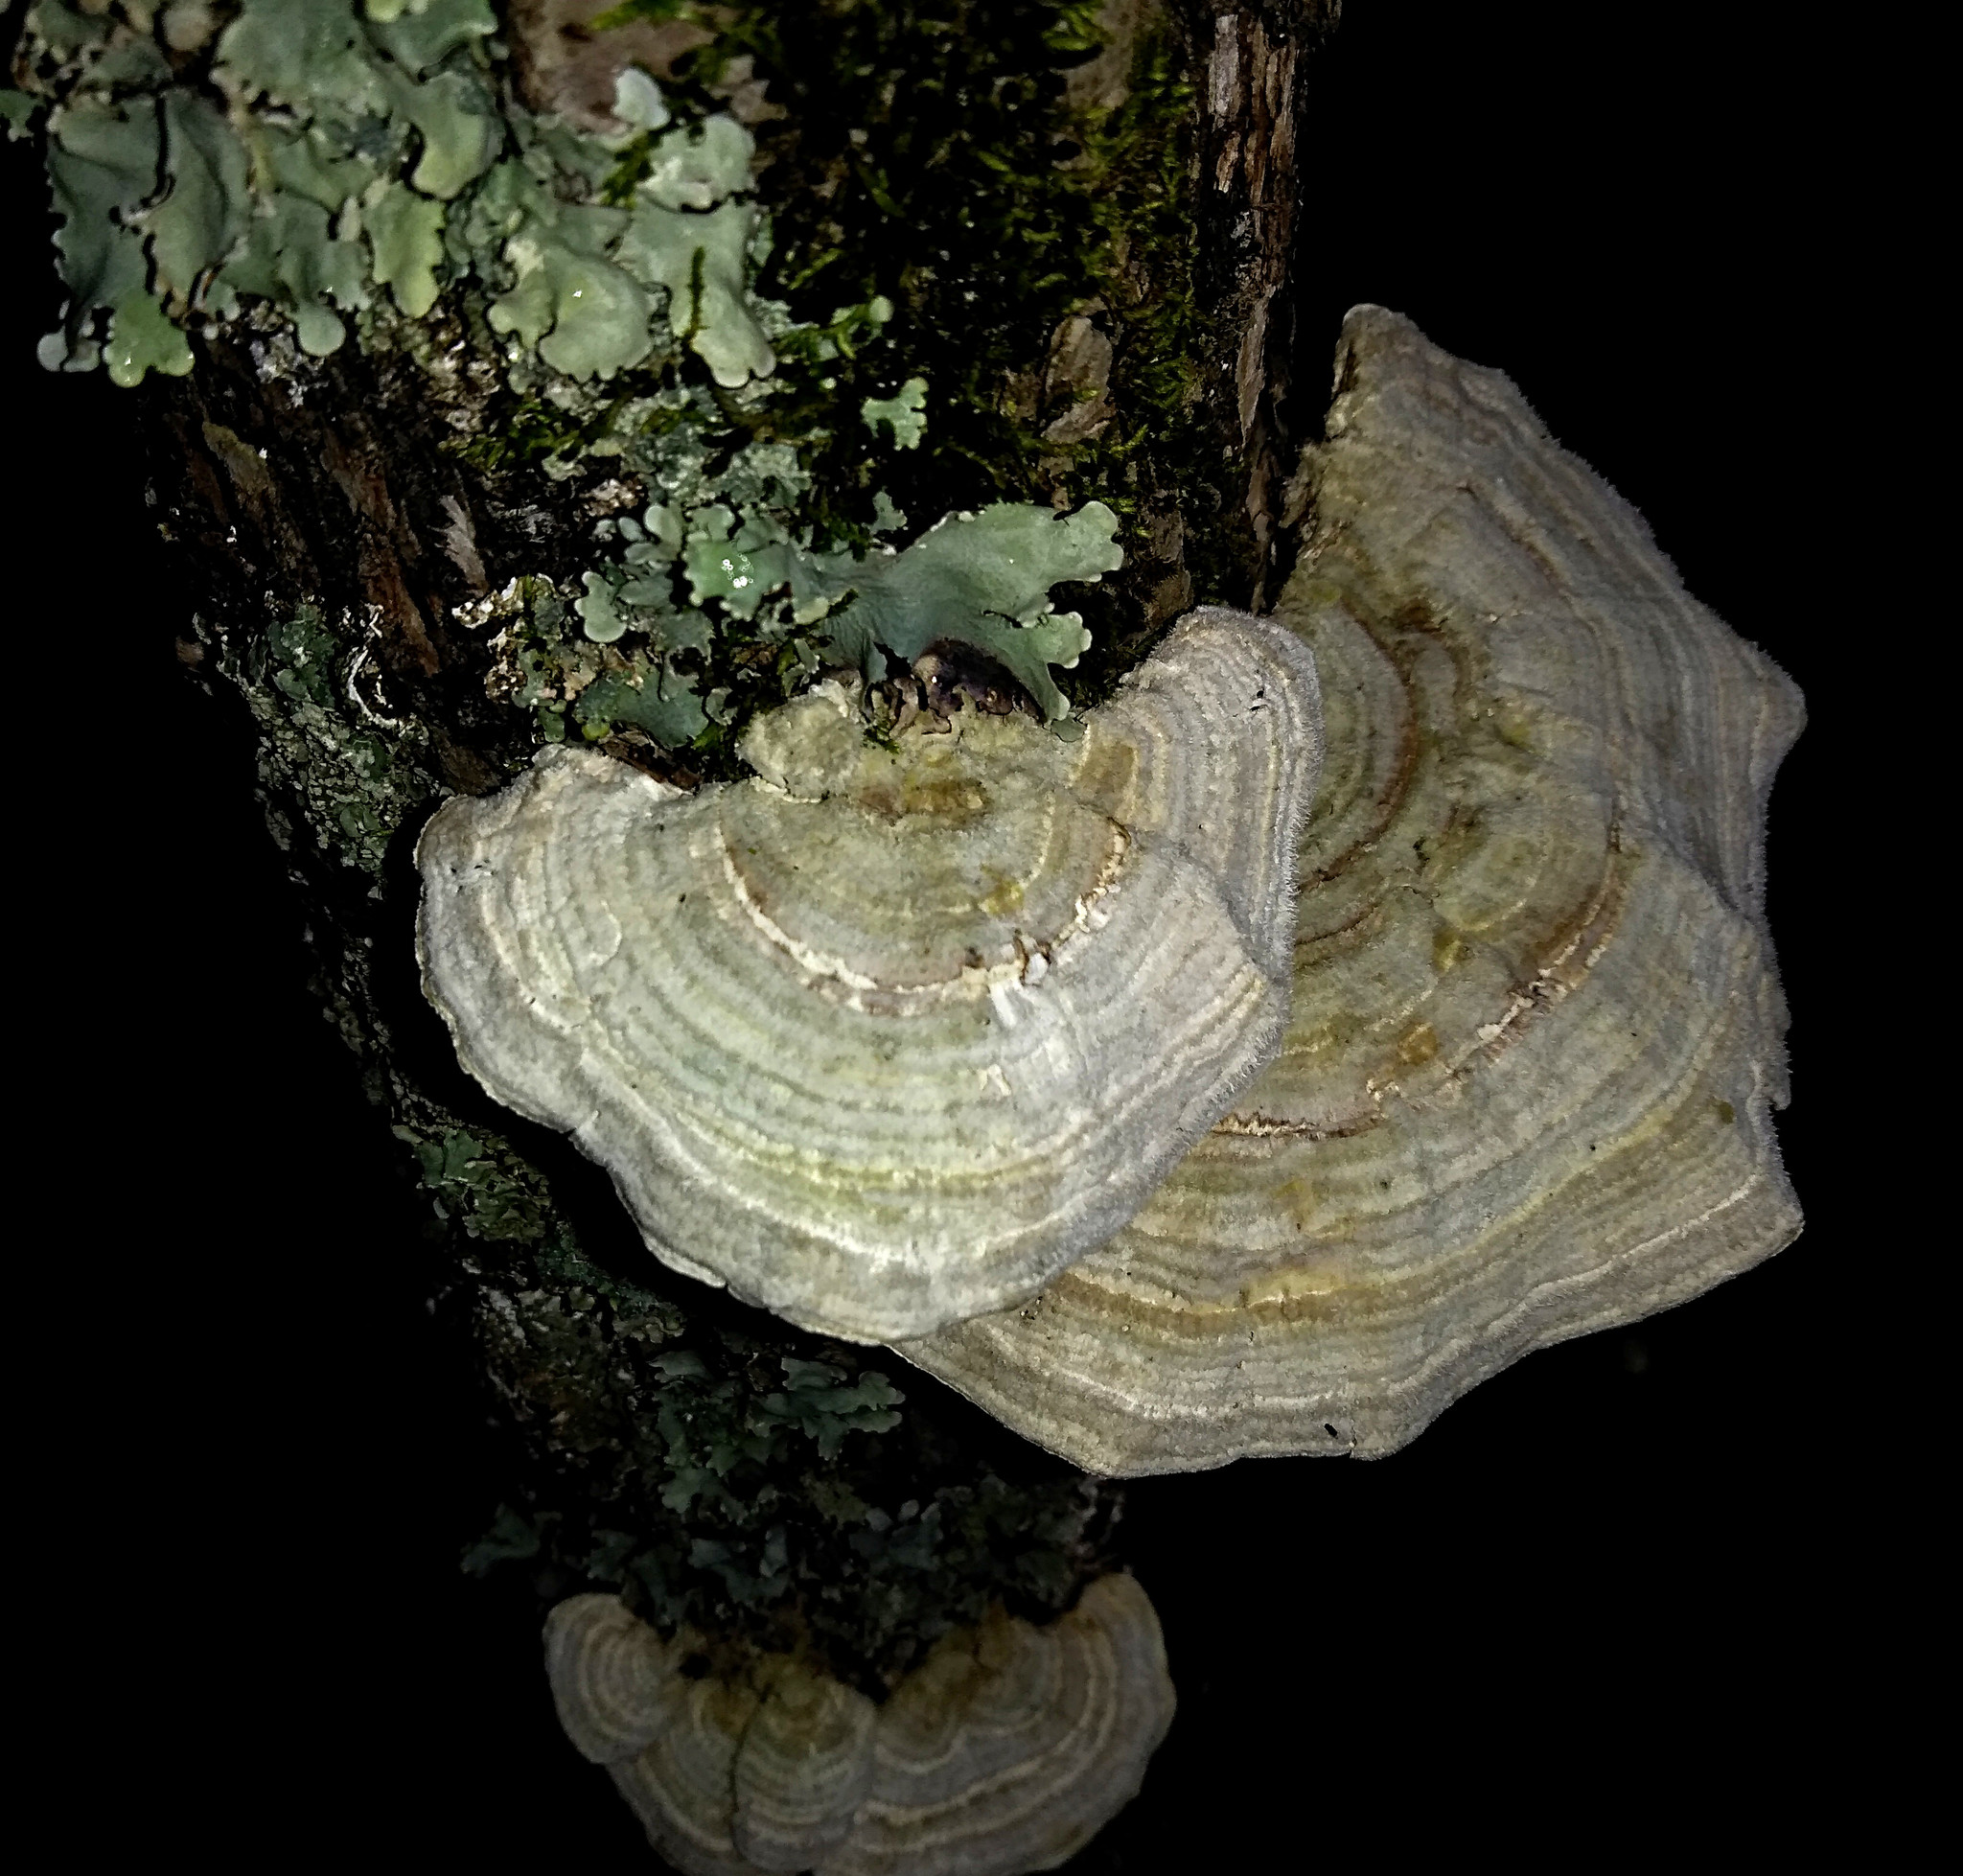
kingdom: Fungi
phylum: Basidiomycota
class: Agaricomycetes
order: Polyporales
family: Polyporaceae
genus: Lenzites
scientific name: Lenzites betulinus
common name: Birch mazegill
